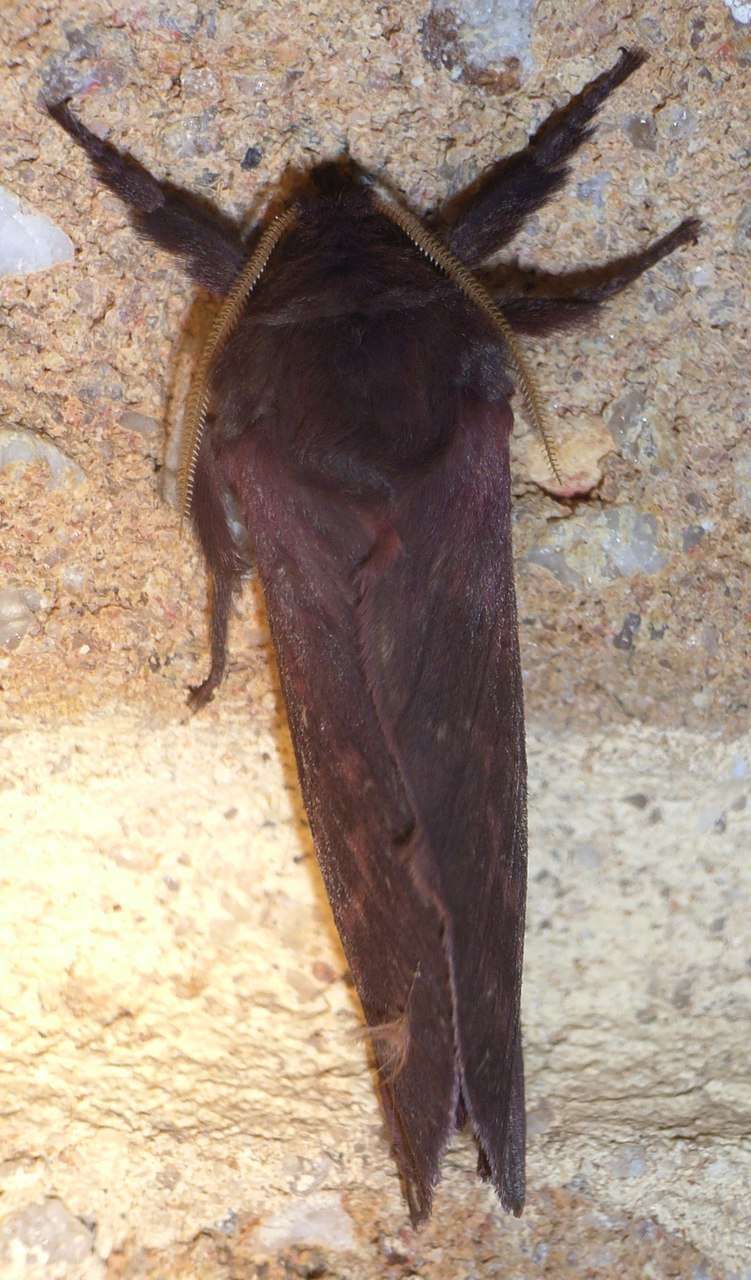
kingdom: Animalia
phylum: Arthropoda
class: Insecta
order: Lepidoptera
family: Hepialidae
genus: Oxycanus
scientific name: Oxycanus rufescens
